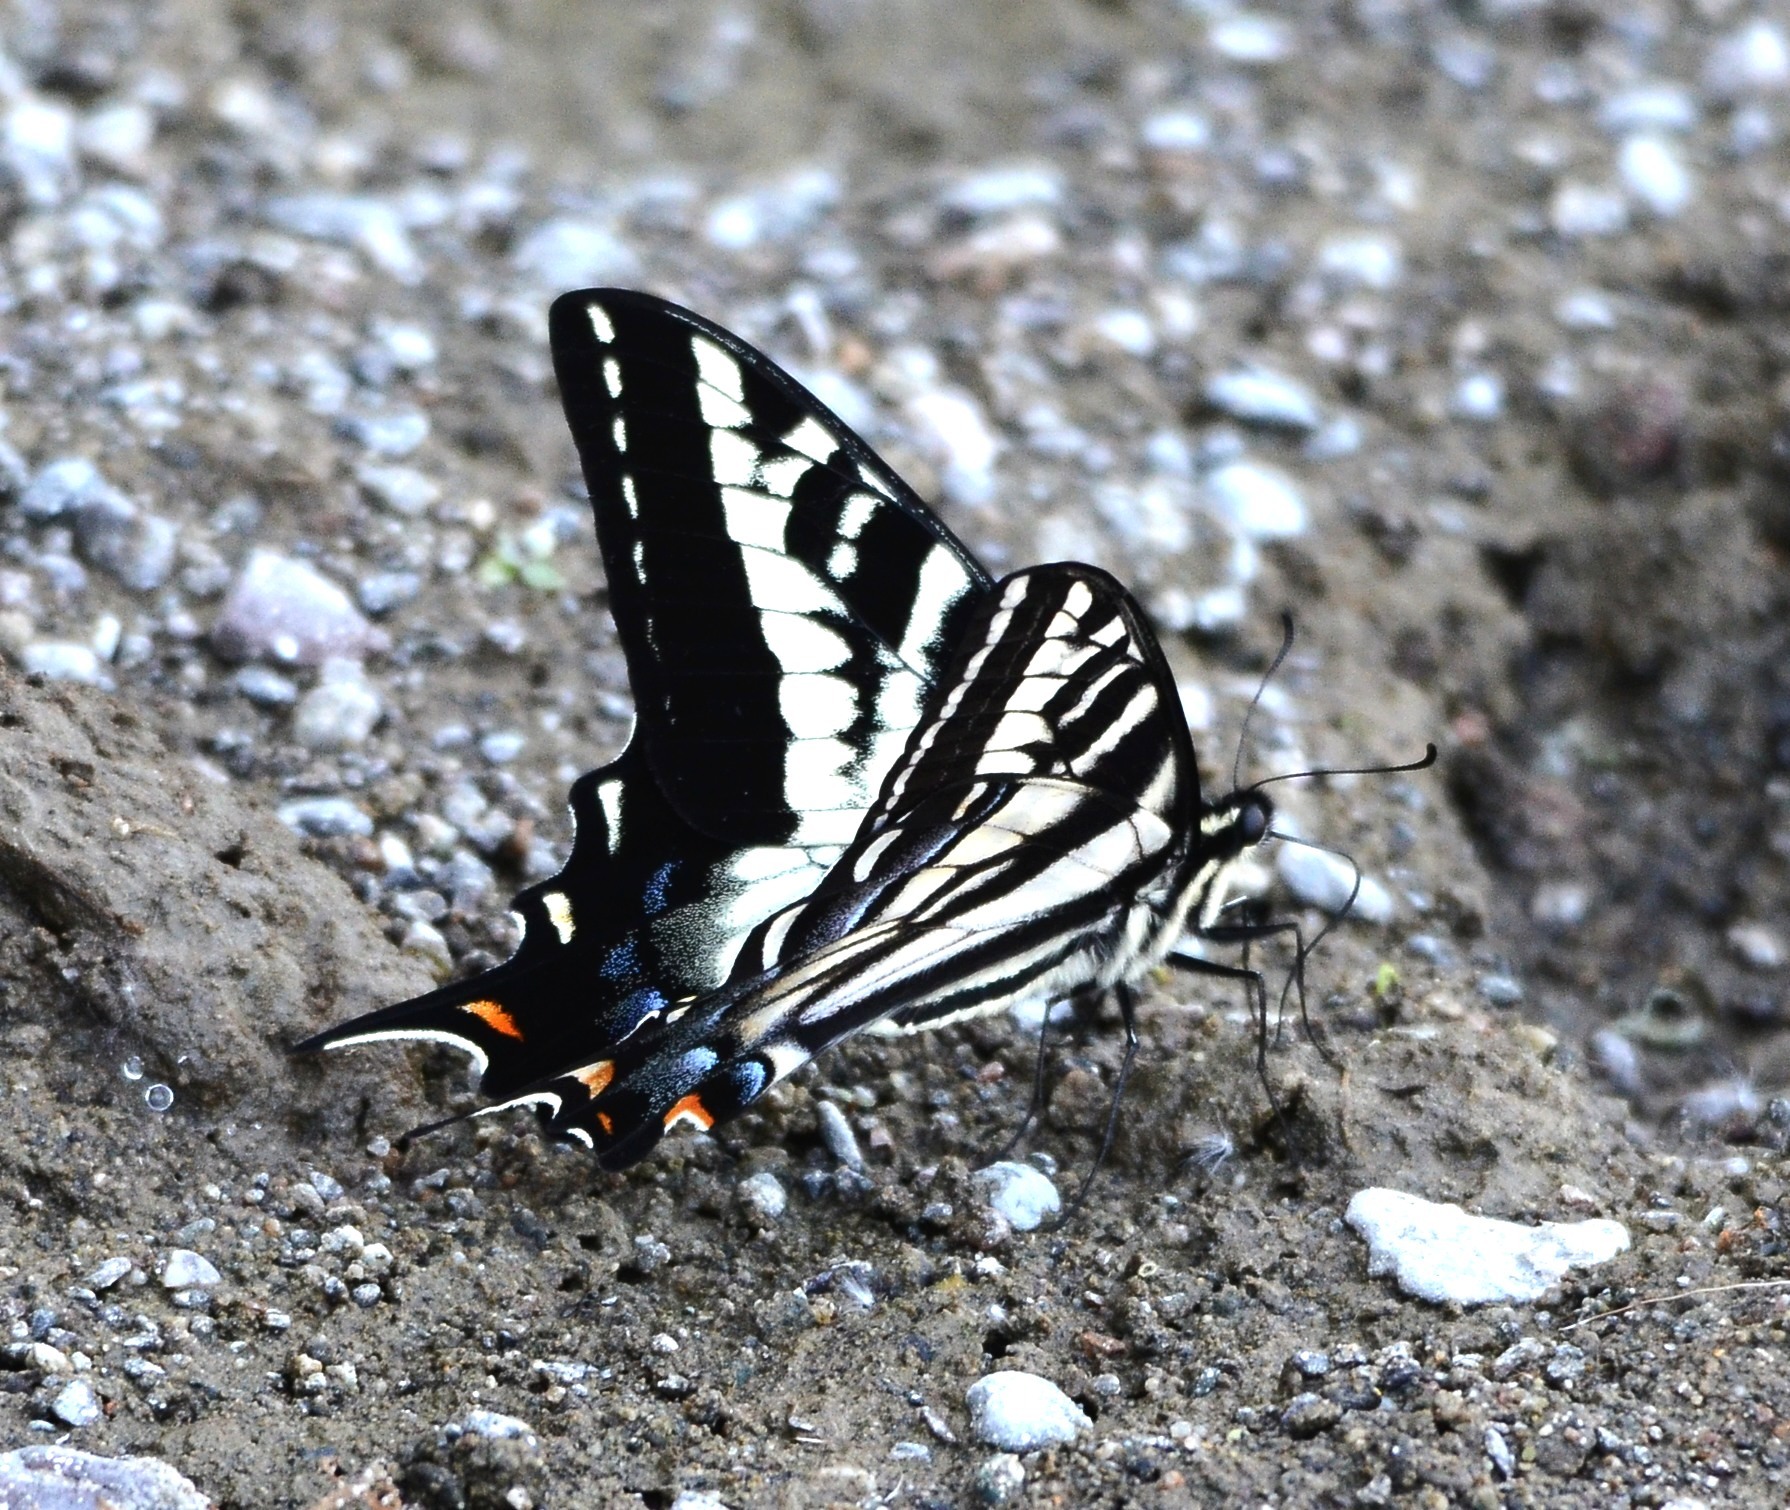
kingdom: Animalia
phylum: Arthropoda
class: Insecta
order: Lepidoptera
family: Papilionidae
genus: Papilio
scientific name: Papilio eurymedon
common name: Pale tiger swallowtail
